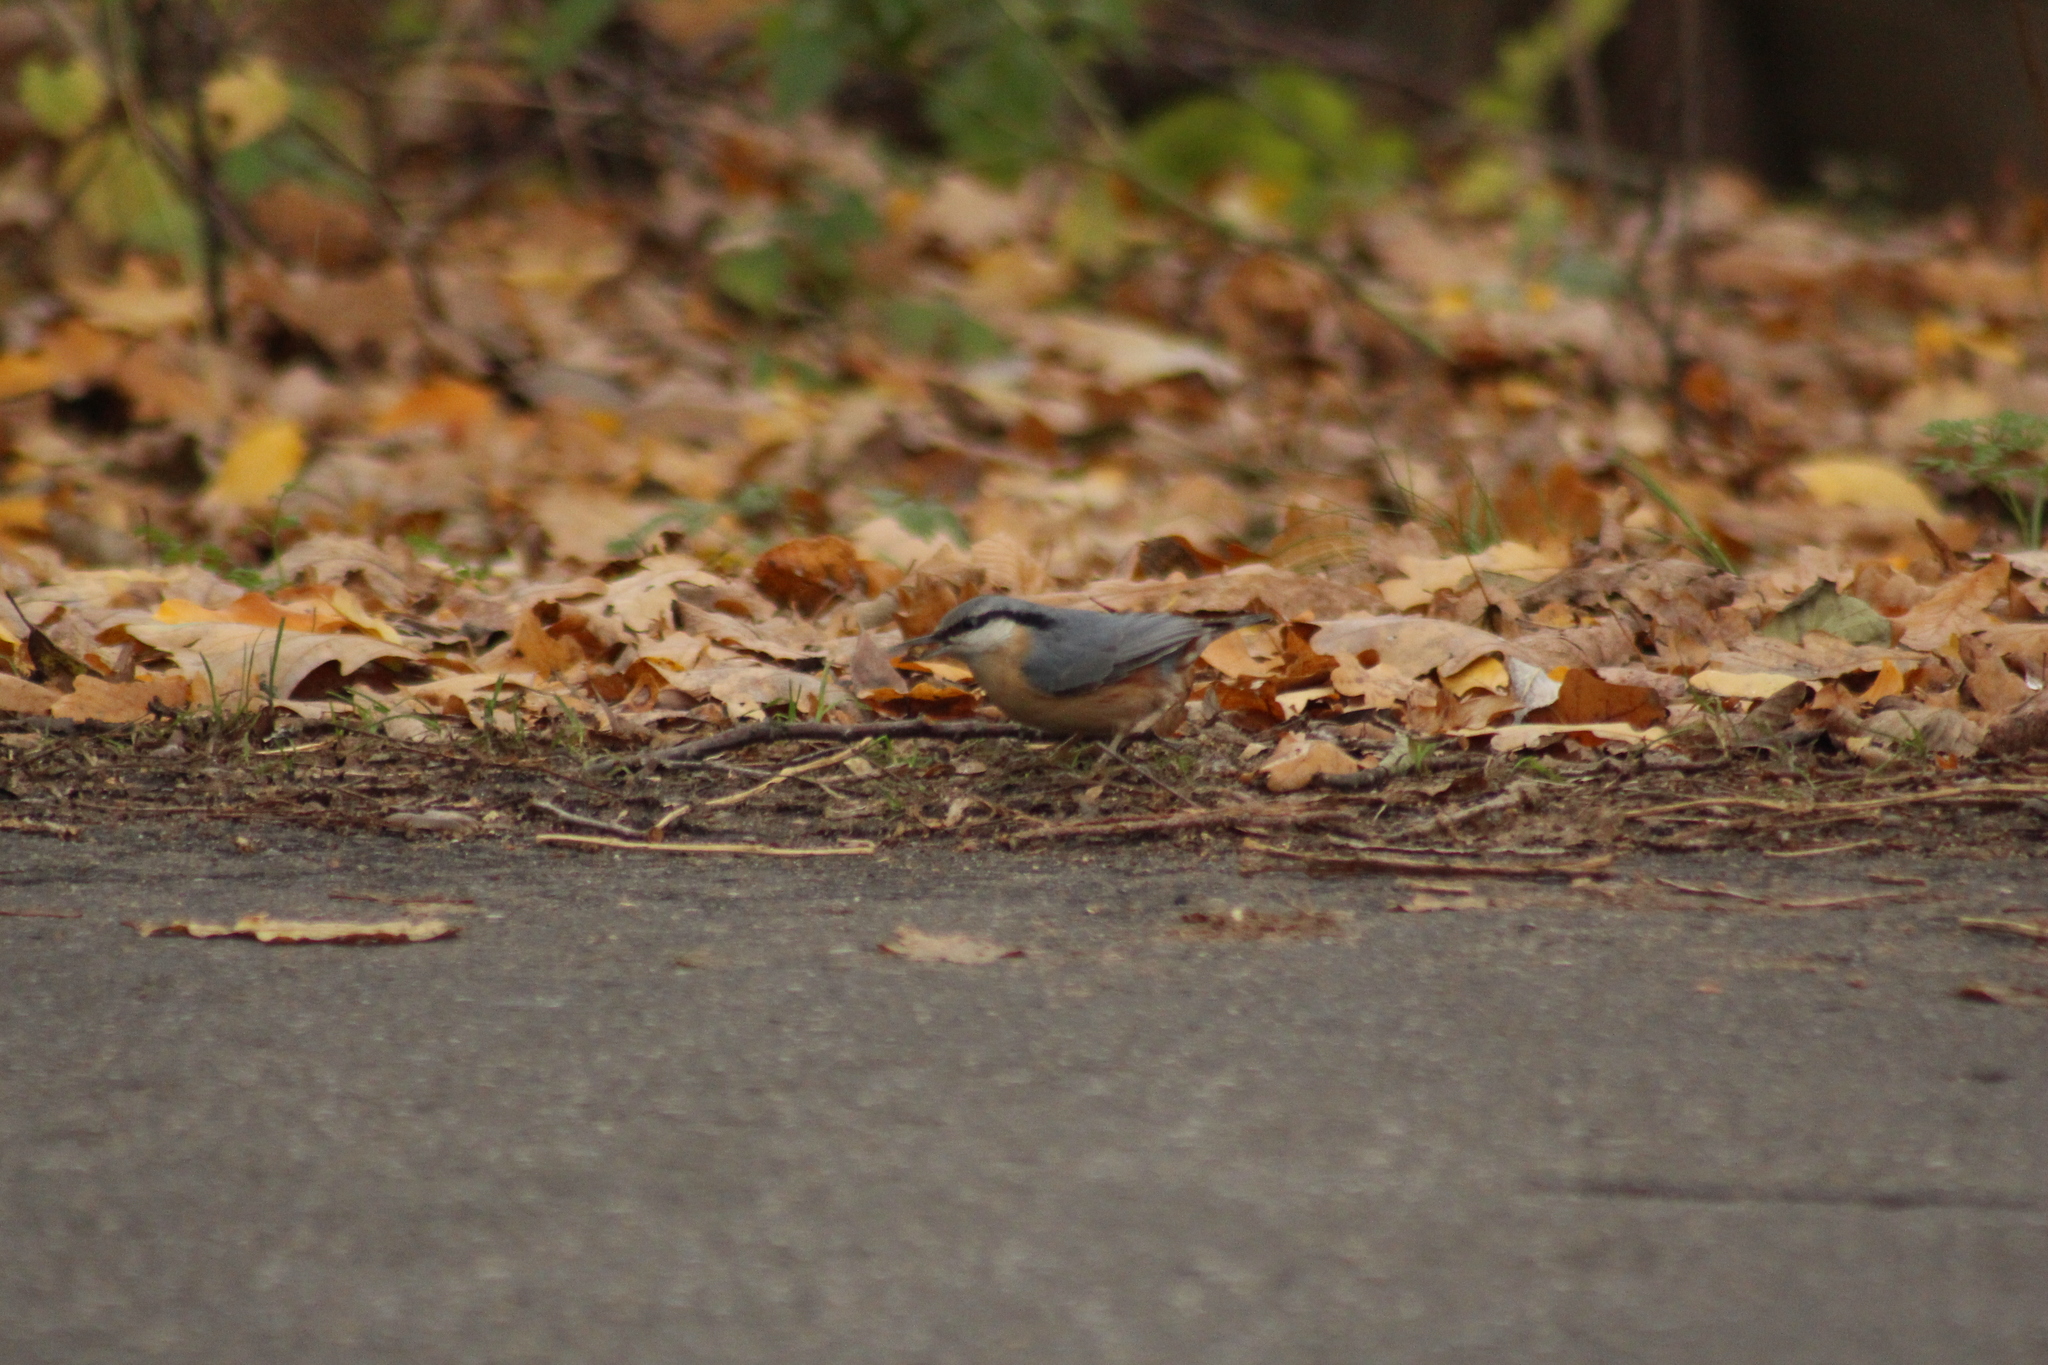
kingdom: Animalia
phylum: Chordata
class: Aves
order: Passeriformes
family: Sittidae
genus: Sitta
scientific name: Sitta europaea
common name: Eurasian nuthatch
